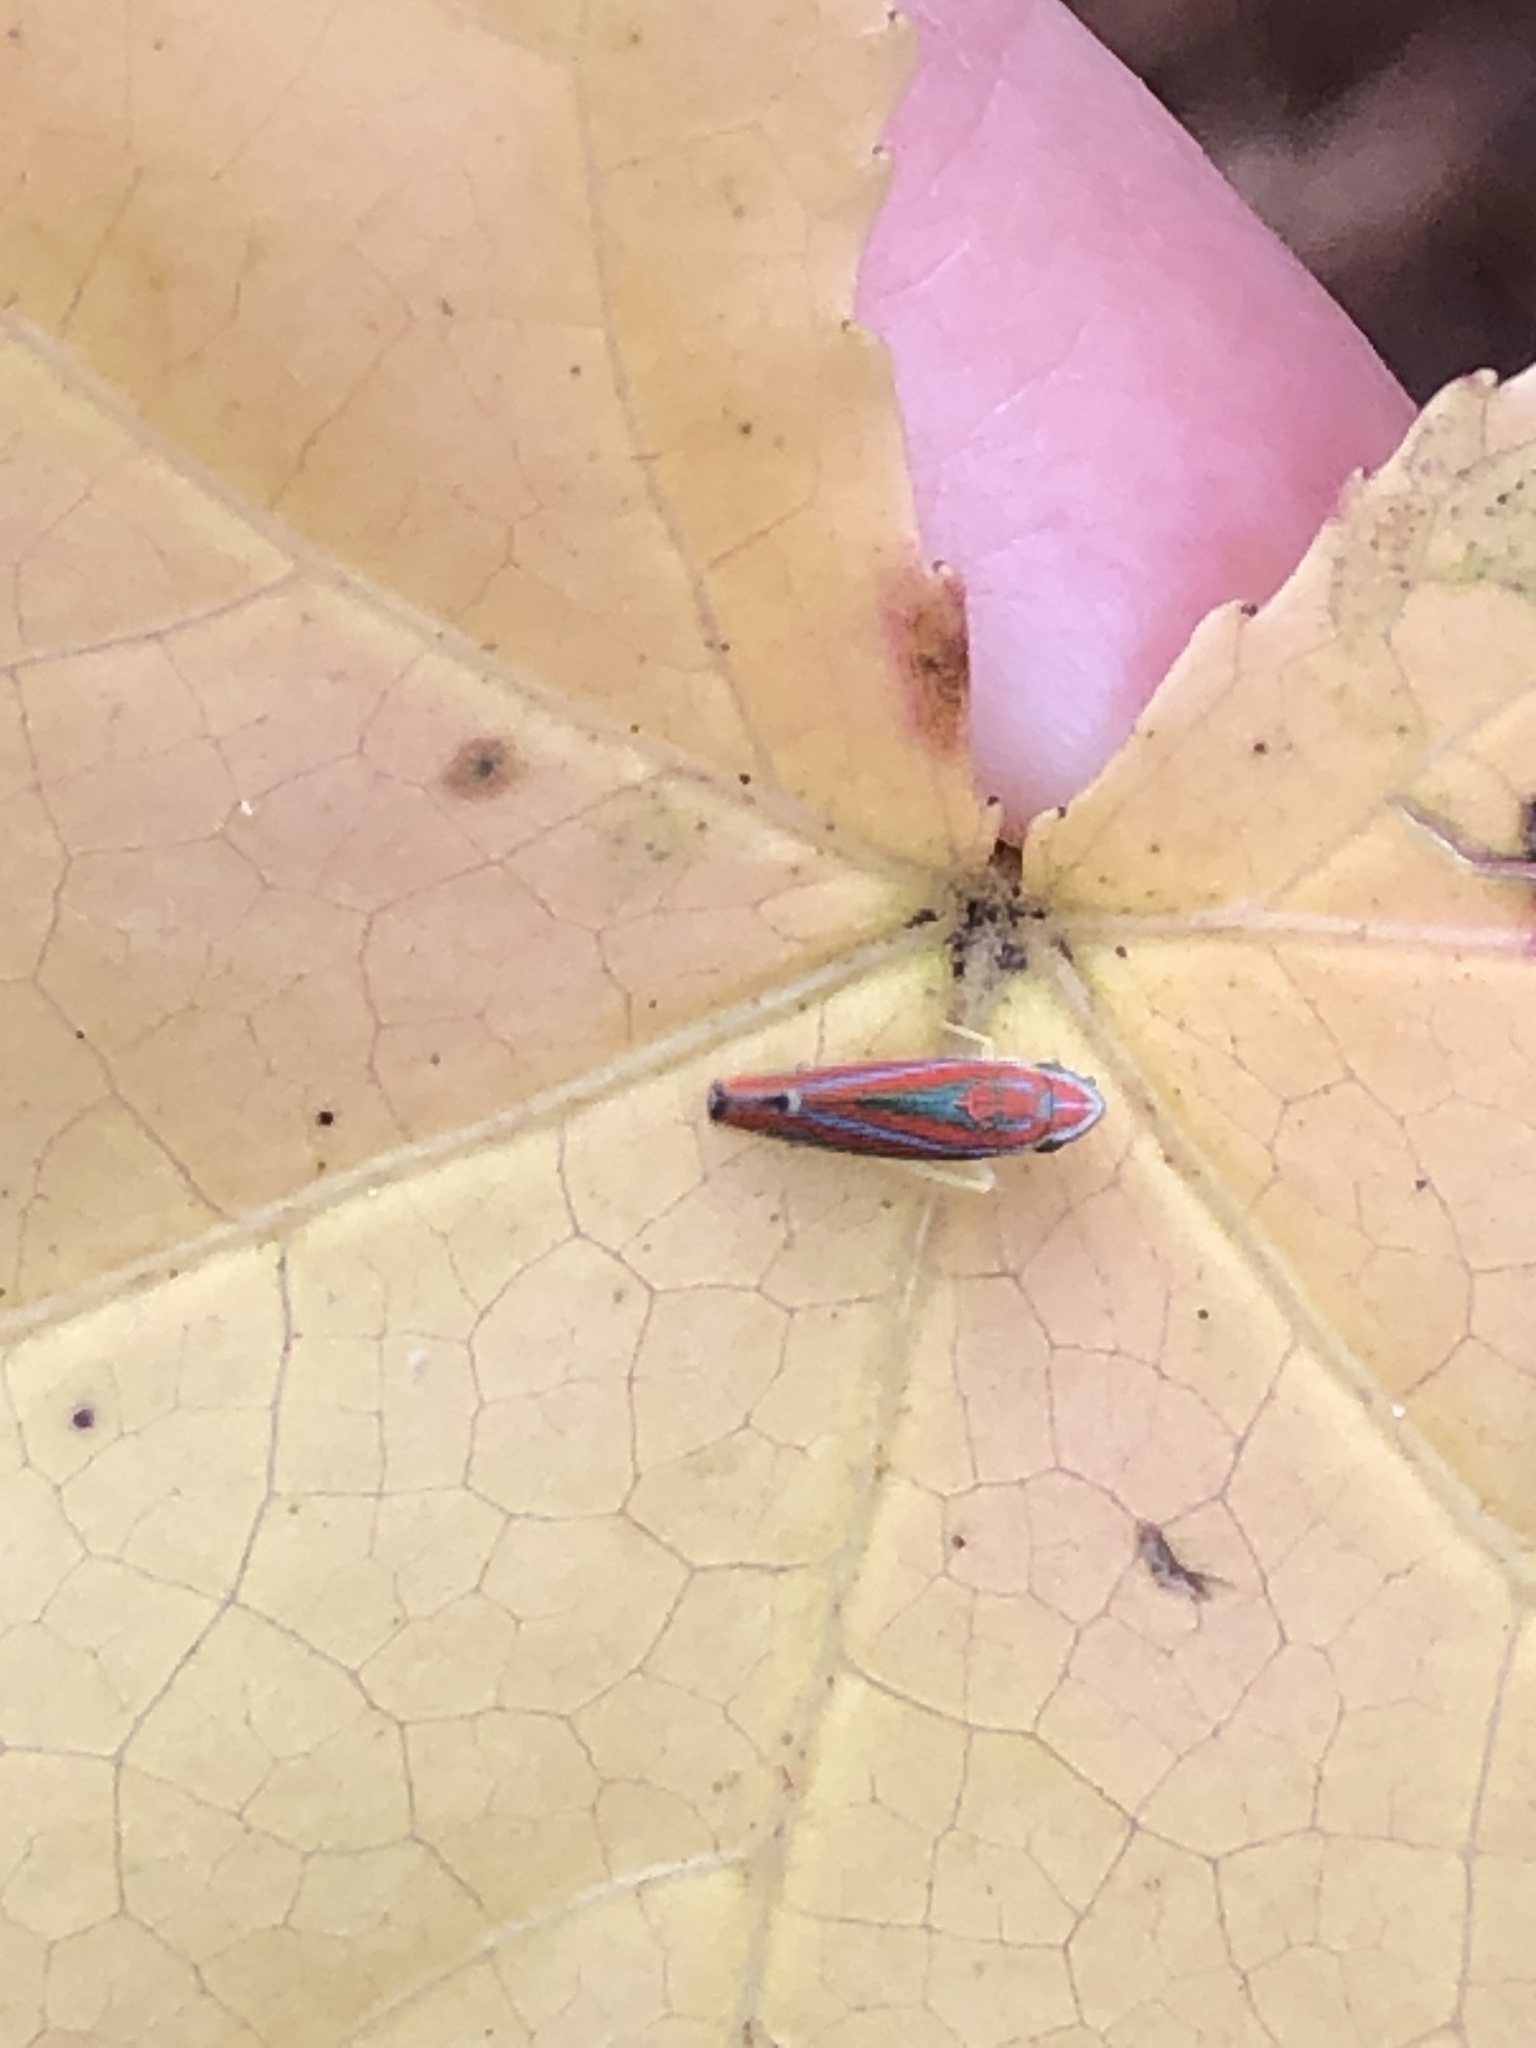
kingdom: Animalia
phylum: Arthropoda
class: Insecta
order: Hemiptera
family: Cicadellidae
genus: Graphocephala
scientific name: Graphocephala versuta
